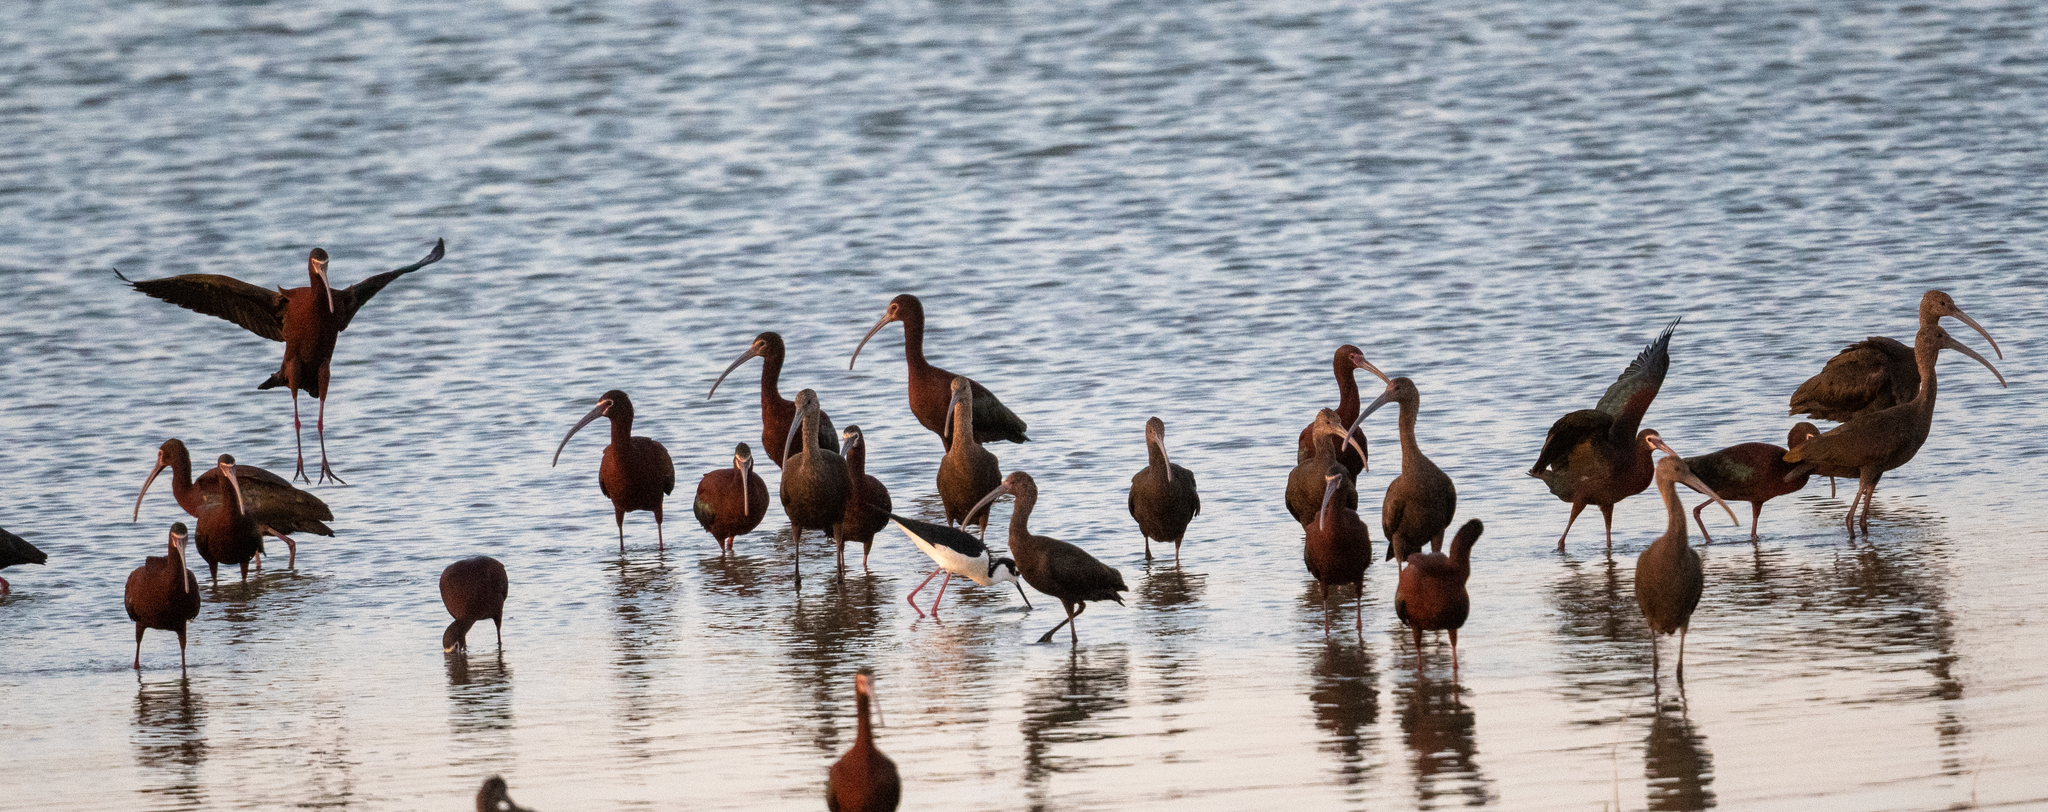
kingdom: Animalia
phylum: Chordata
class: Aves
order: Pelecaniformes
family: Threskiornithidae
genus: Plegadis
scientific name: Plegadis chihi
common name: White-faced ibis
